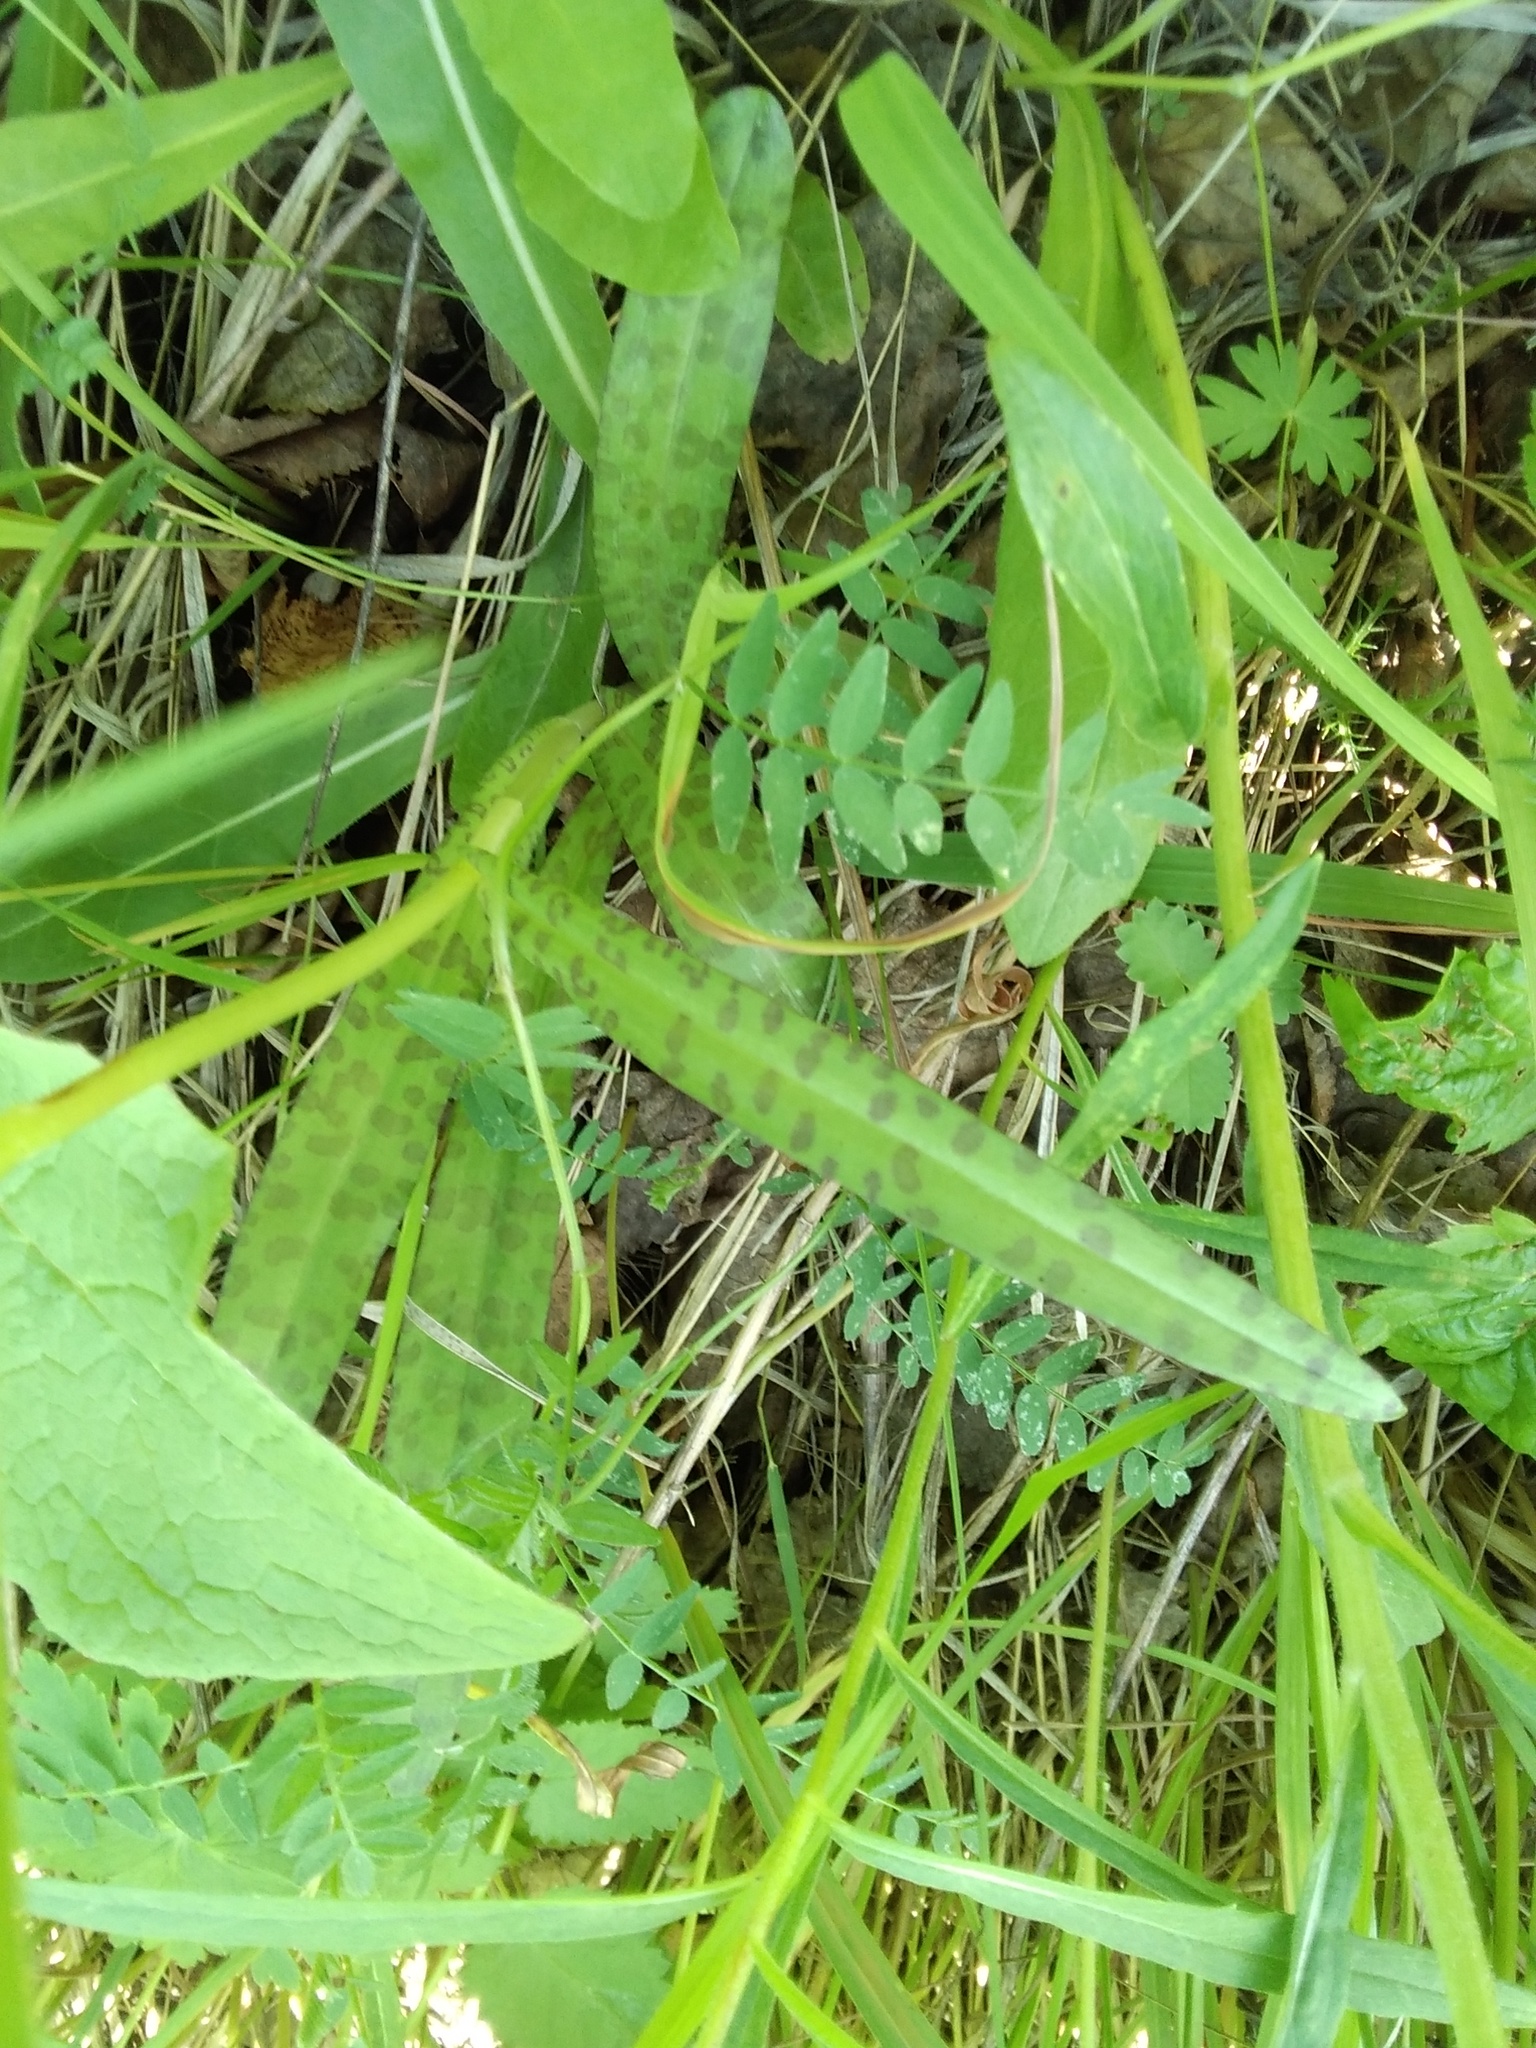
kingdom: Plantae
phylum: Tracheophyta
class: Liliopsida
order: Asparagales
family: Orchidaceae
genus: Dactylorhiza
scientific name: Dactylorhiza maculata
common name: Heath spotted-orchid
